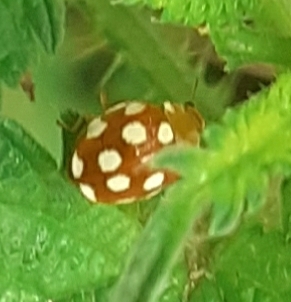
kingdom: Animalia
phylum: Arthropoda
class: Insecta
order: Coleoptera
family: Coccinellidae
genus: Vibidia
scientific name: Vibidia duodecimguttata
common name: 12-spot ladybird
